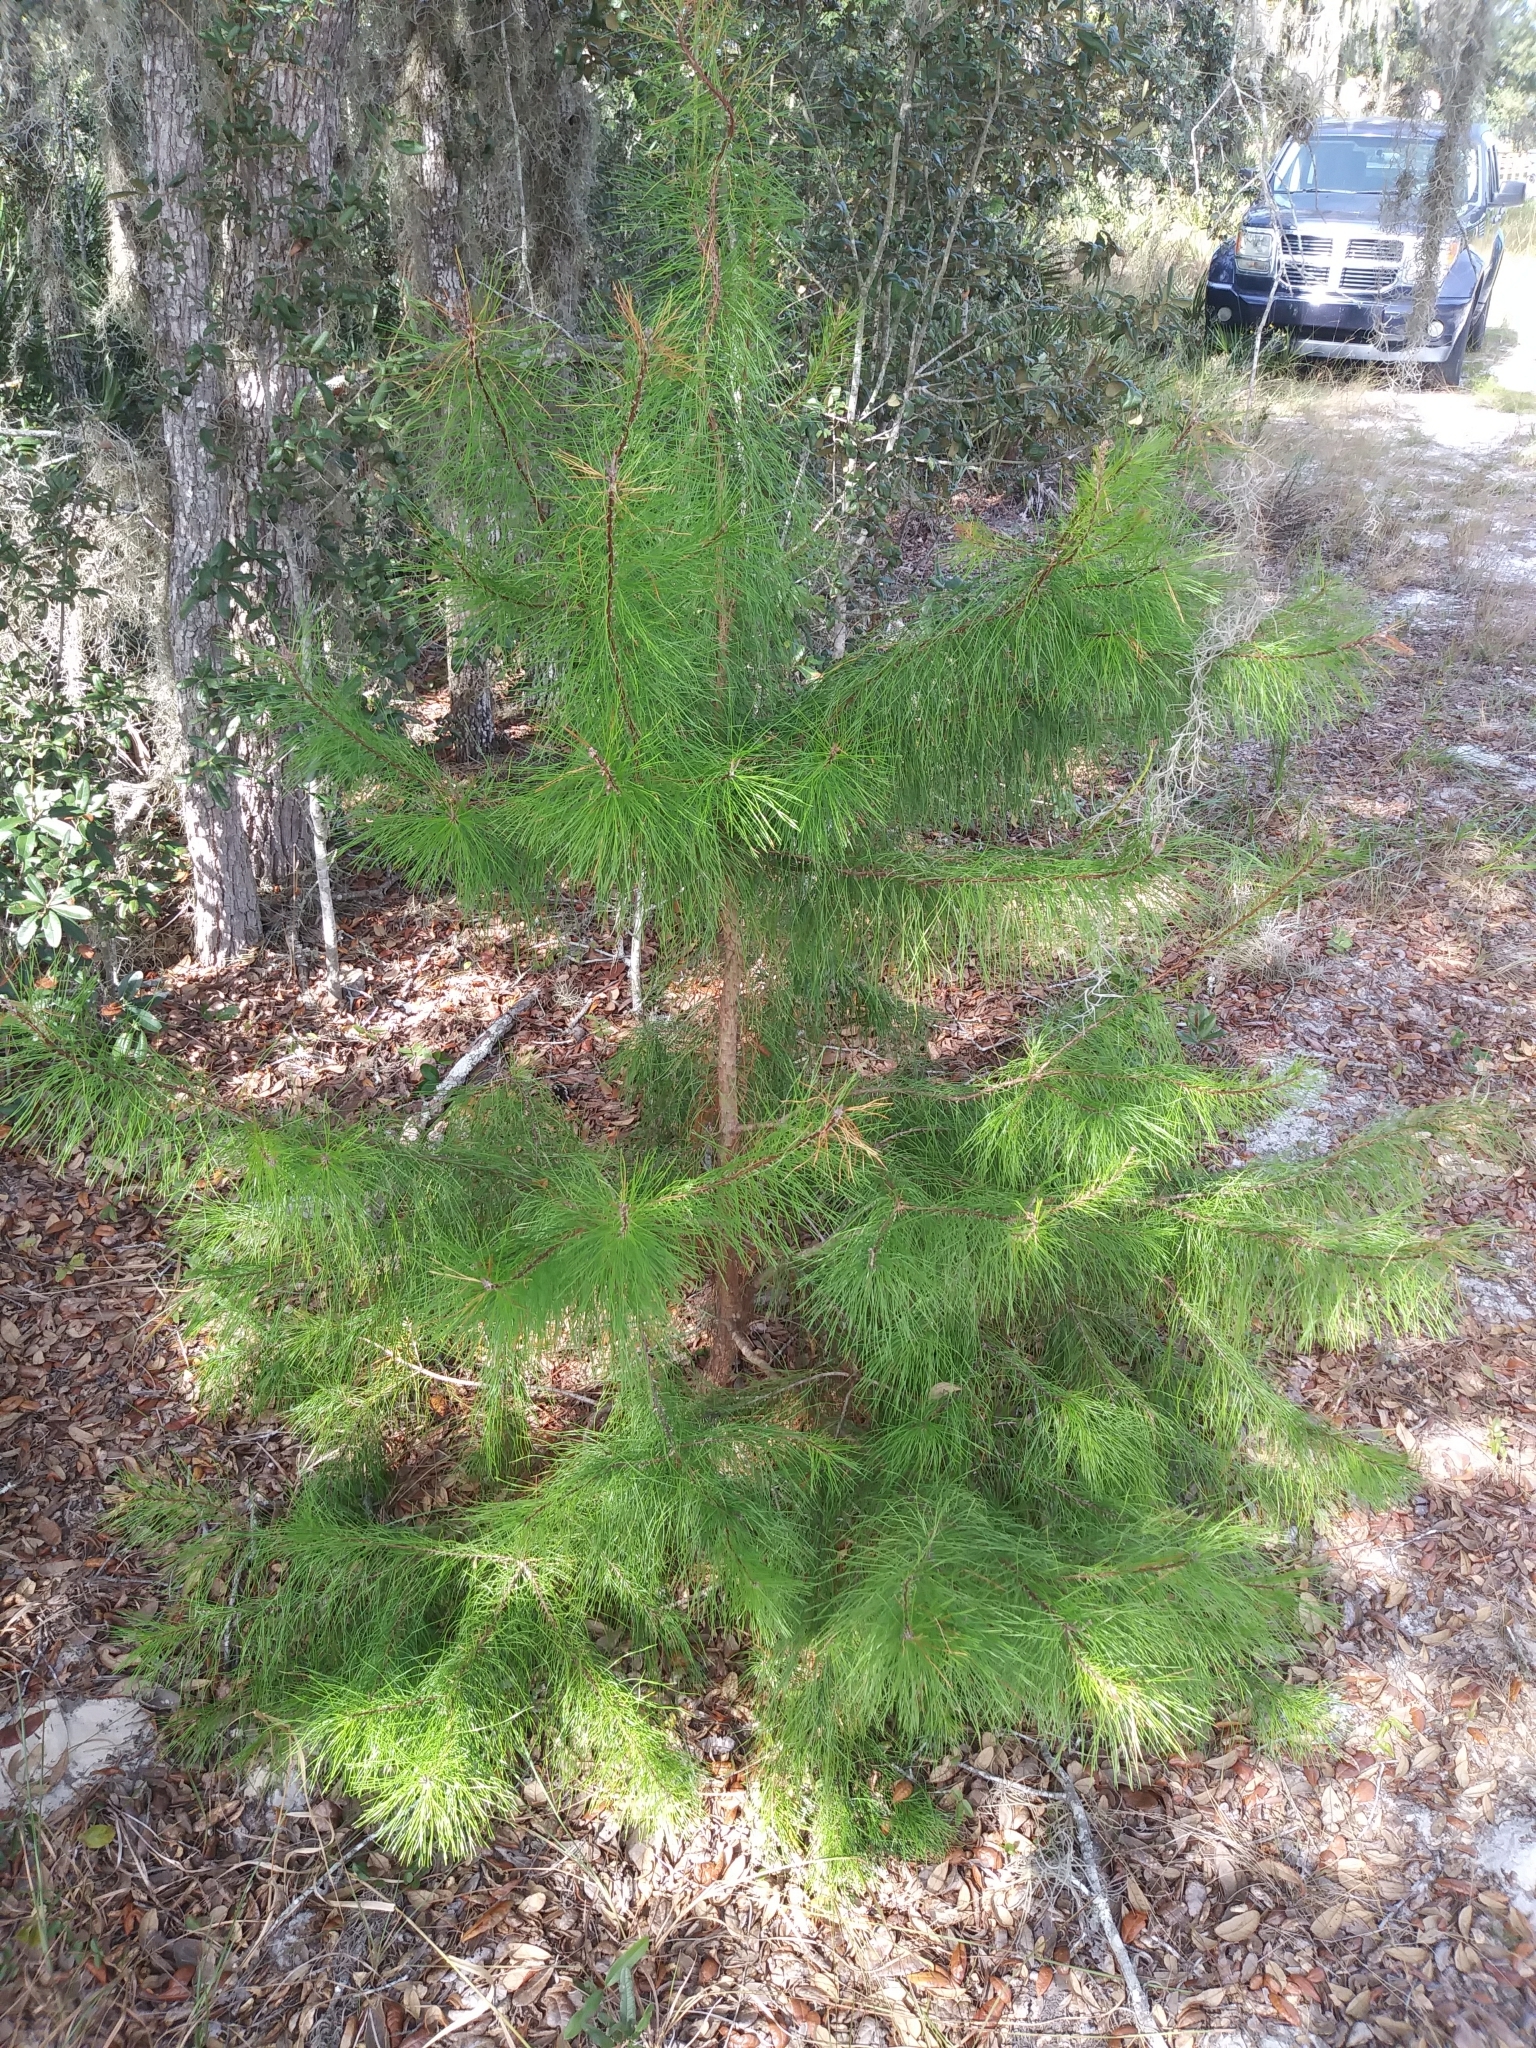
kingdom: Plantae
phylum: Tracheophyta
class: Pinopsida
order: Pinales
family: Pinaceae
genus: Pinus
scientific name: Pinus clausa
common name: Sand pine
